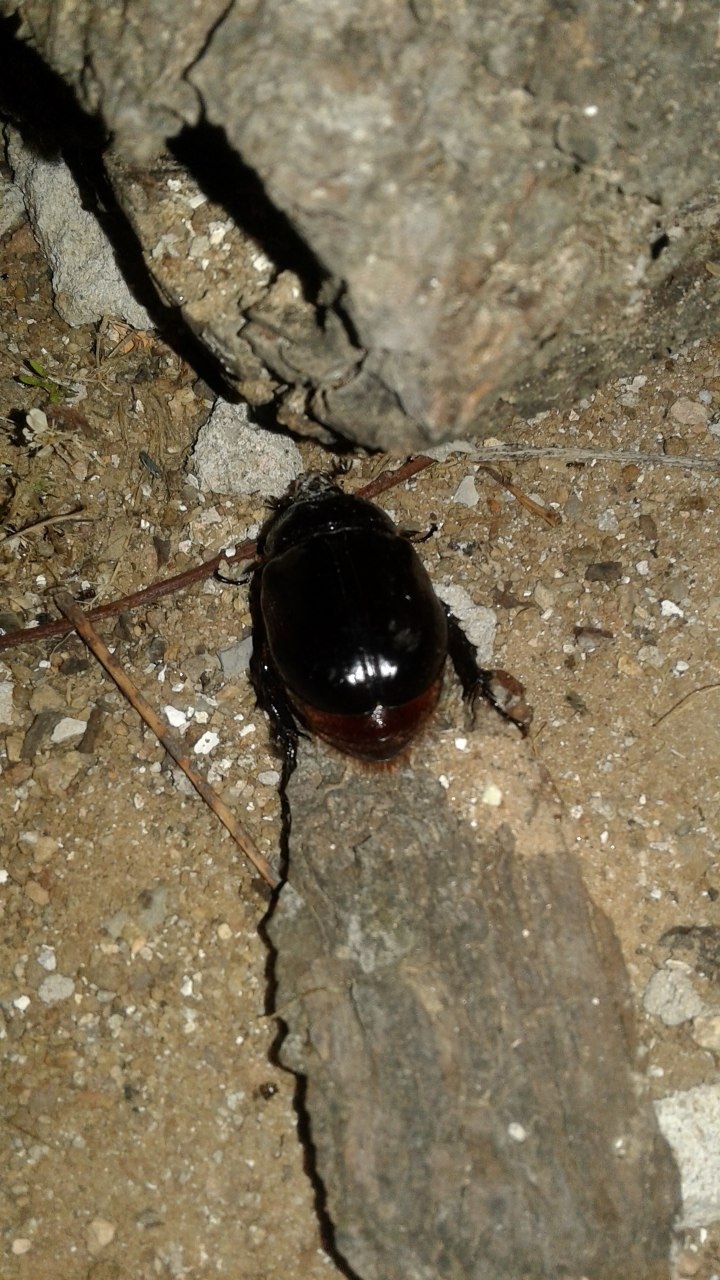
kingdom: Animalia
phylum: Arthropoda
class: Insecta
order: Coleoptera
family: Scarabaeidae
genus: Diloboderus
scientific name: Diloboderus abderus
